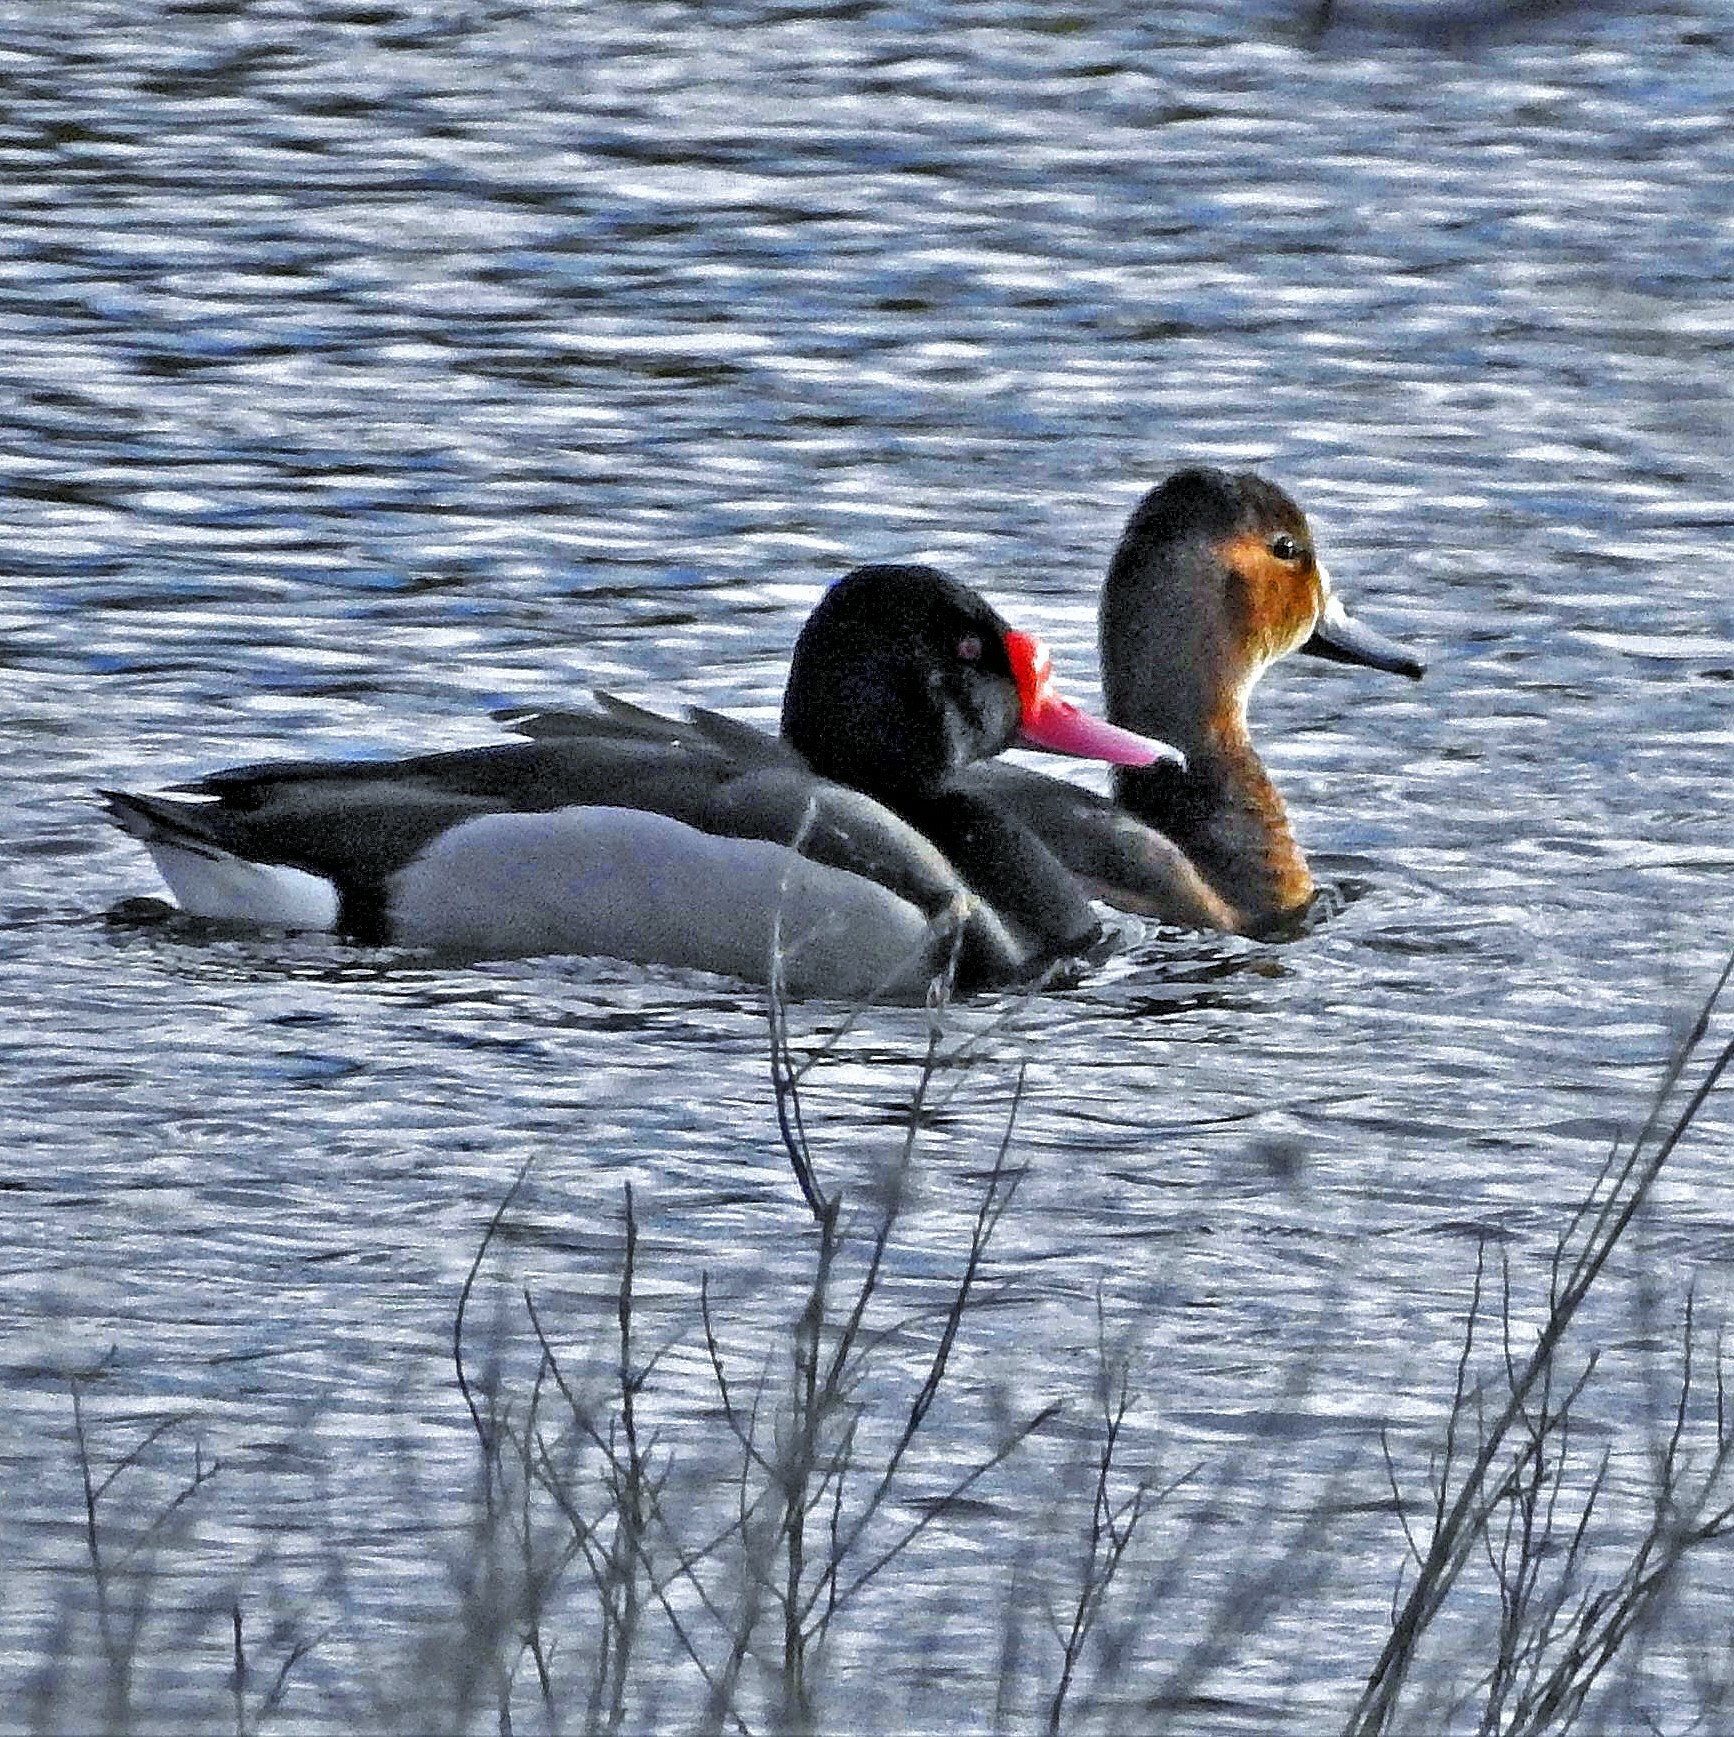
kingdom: Animalia
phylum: Chordata
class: Aves
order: Anseriformes
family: Anatidae
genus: Netta
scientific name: Netta peposaca
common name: Rosy-billed pochard
